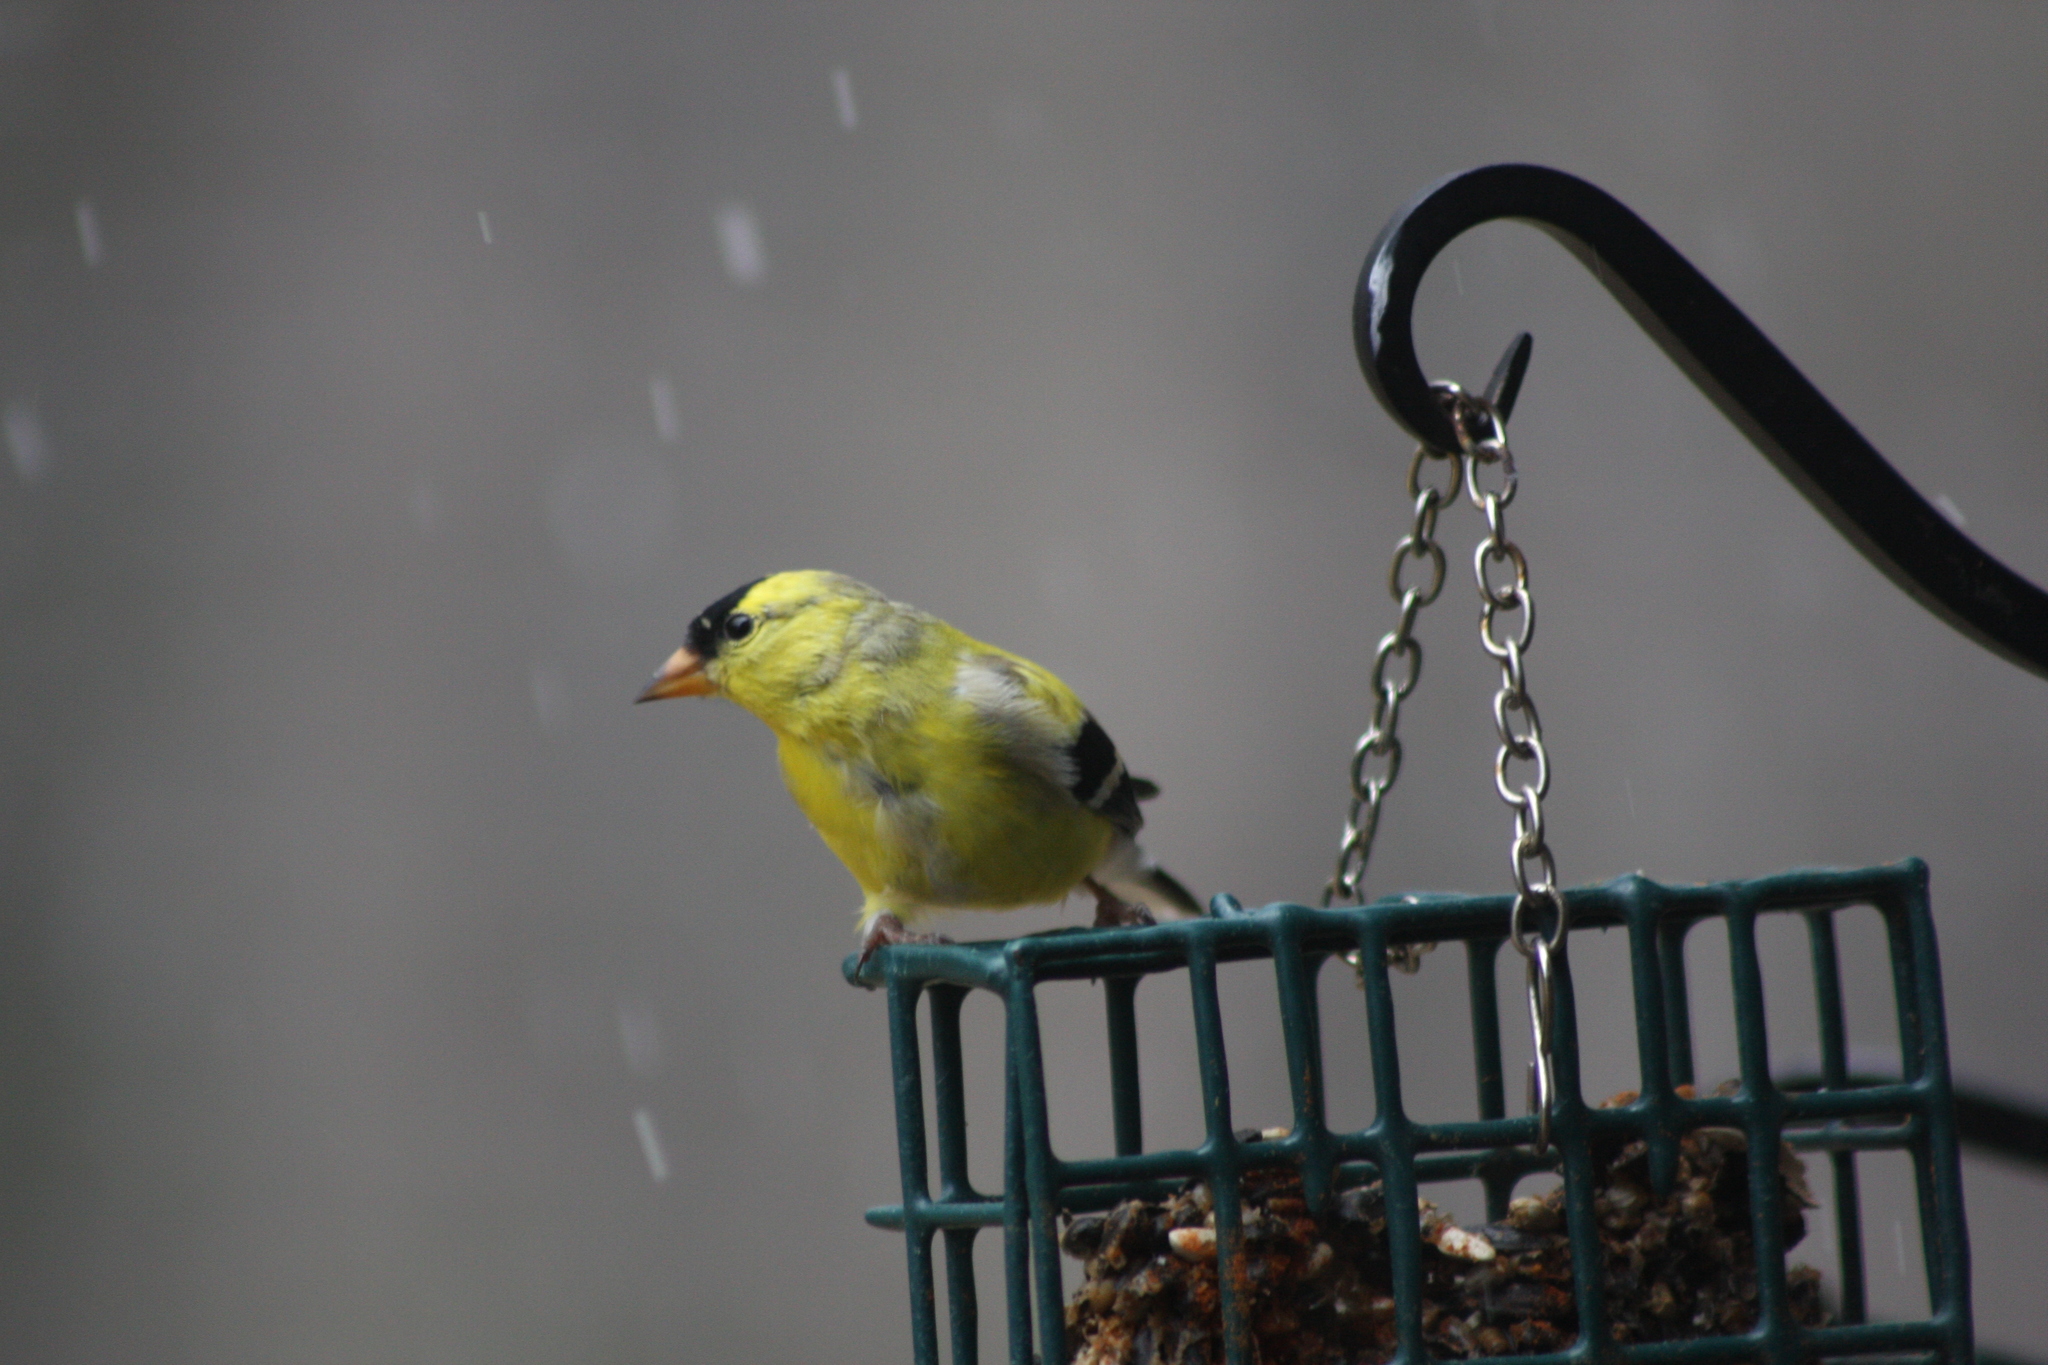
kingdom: Animalia
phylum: Chordata
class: Aves
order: Passeriformes
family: Fringillidae
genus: Spinus
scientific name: Spinus tristis
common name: American goldfinch
